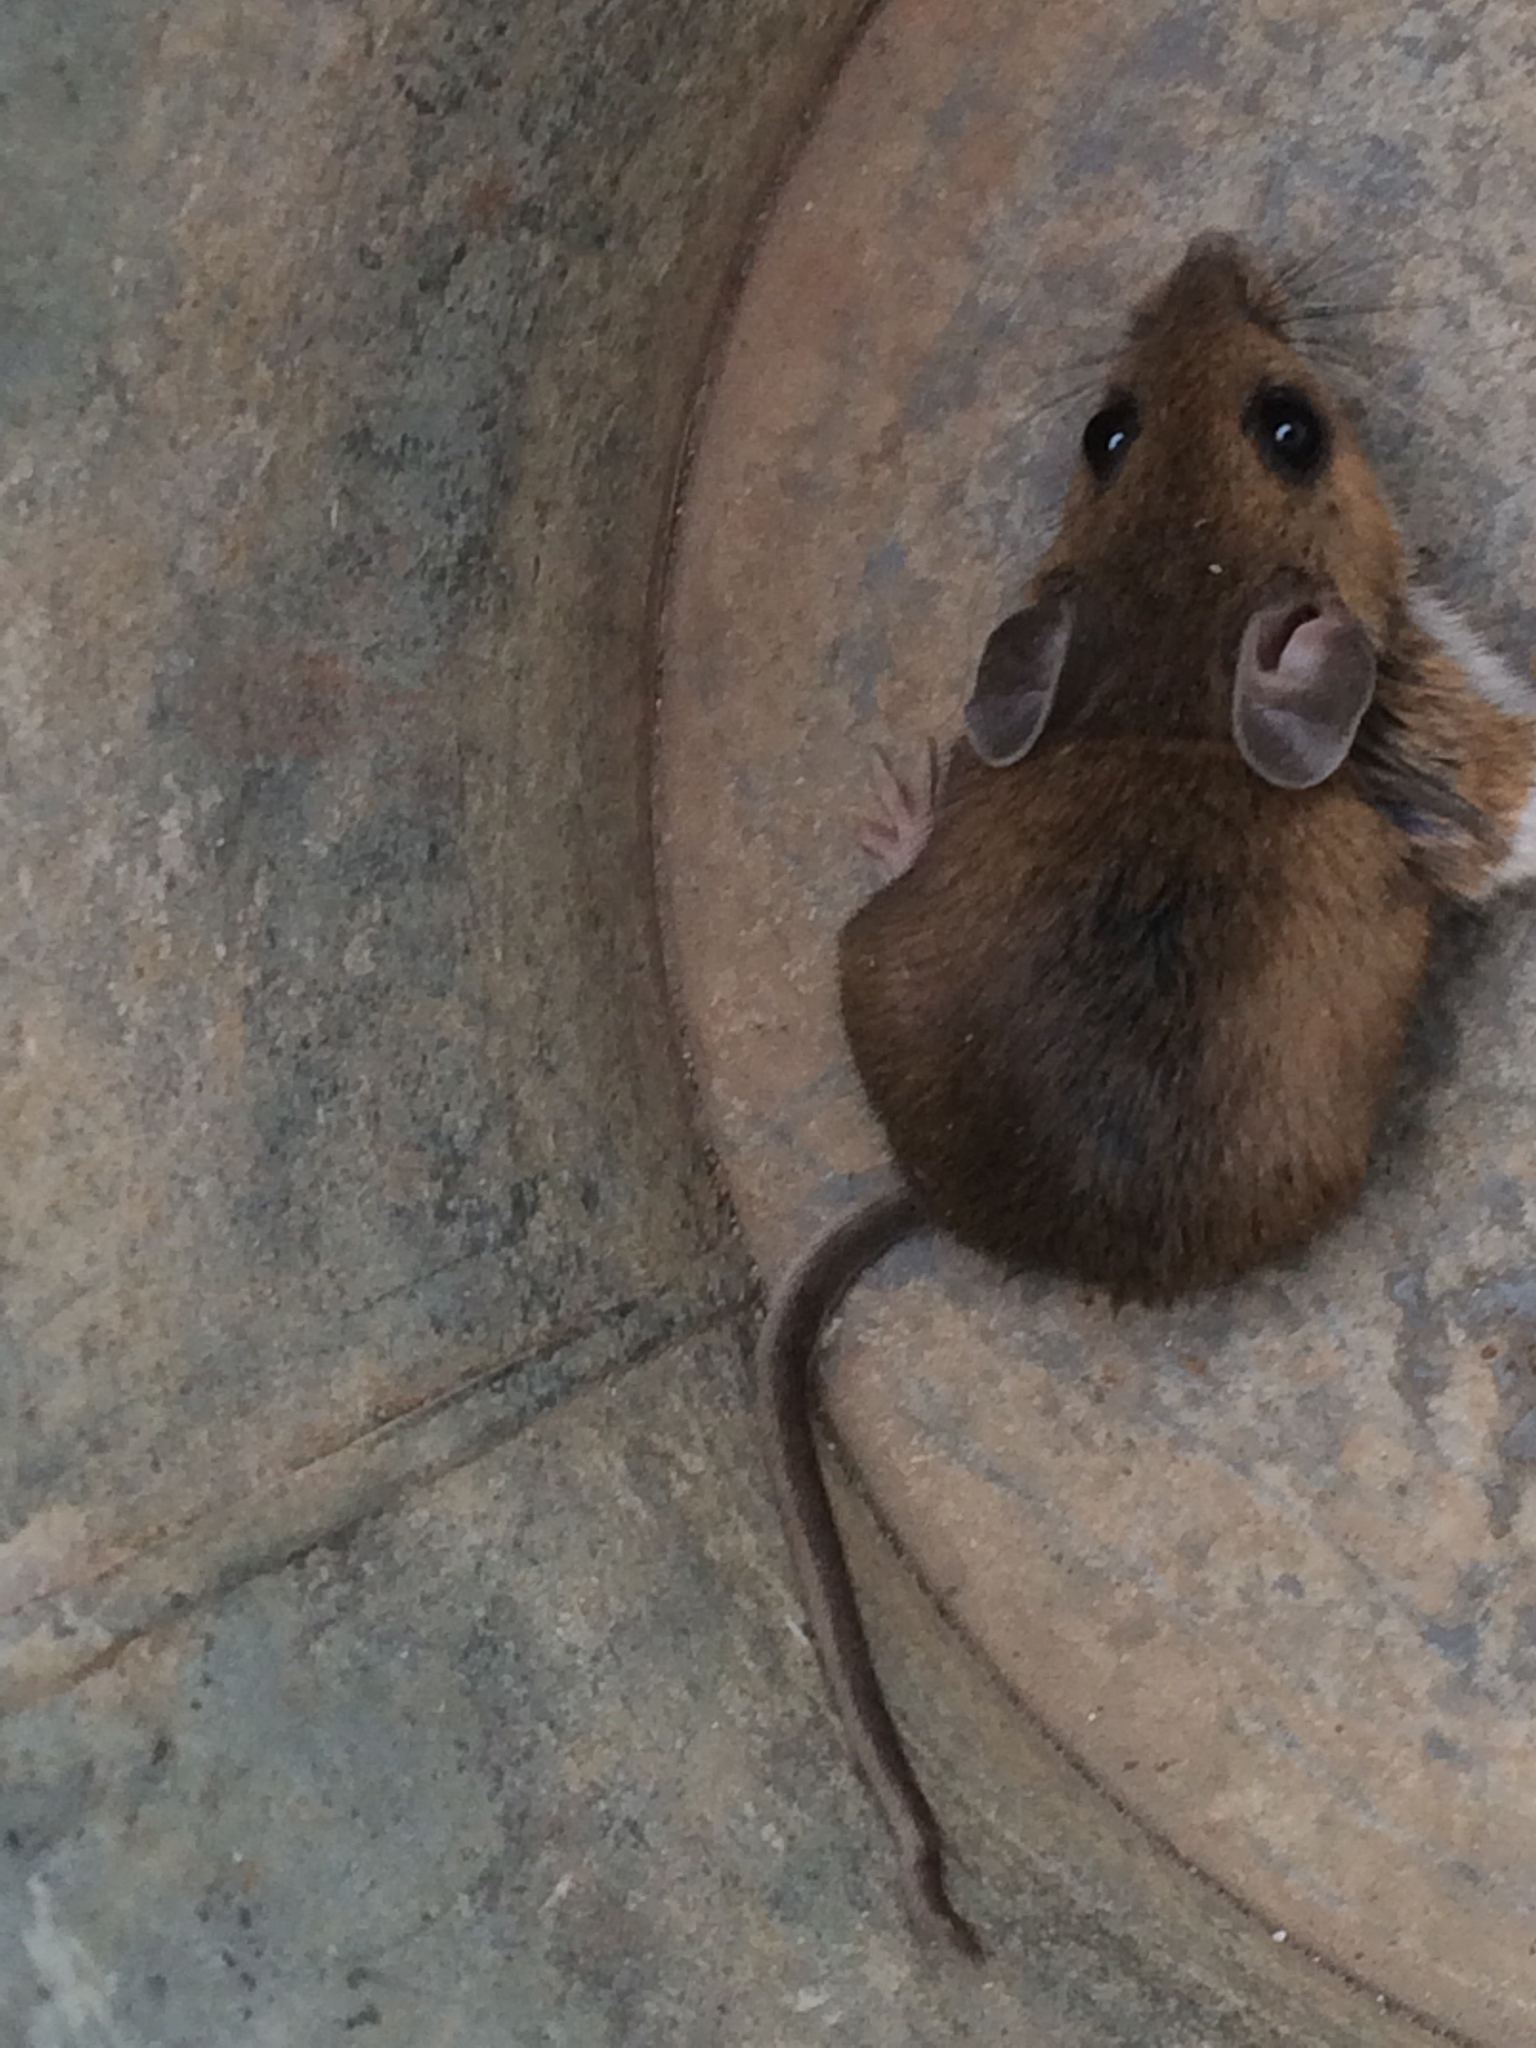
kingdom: Animalia
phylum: Chordata
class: Mammalia
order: Rodentia
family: Cricetidae
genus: Peromyscus
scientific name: Peromyscus
